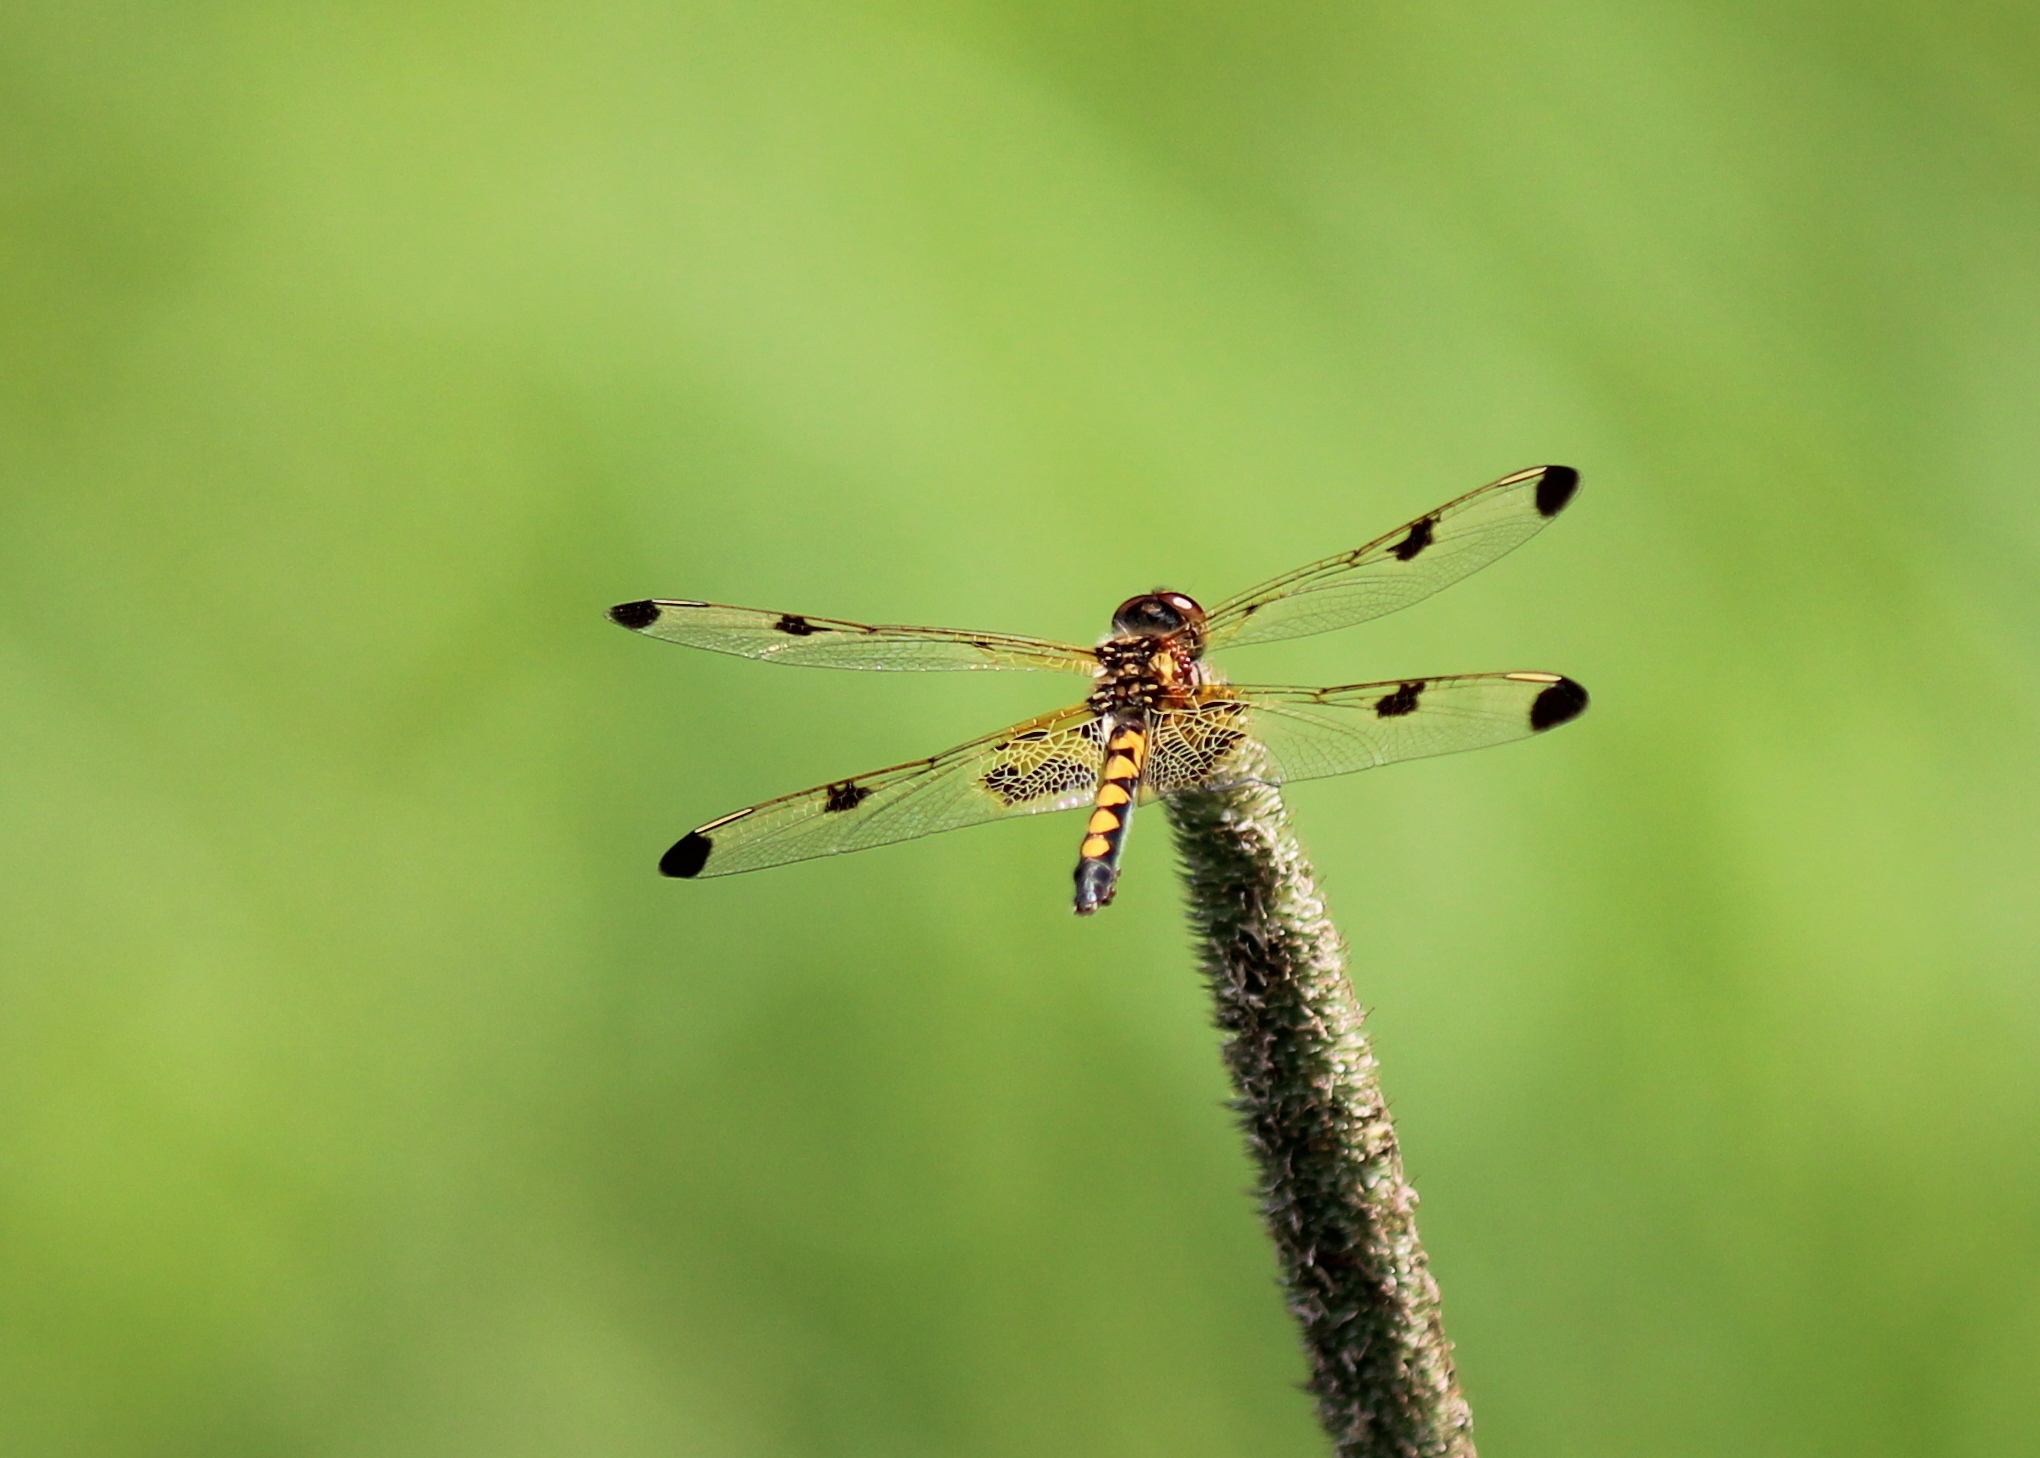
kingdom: Animalia
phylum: Arthropoda
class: Insecta
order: Odonata
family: Libellulidae
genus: Celithemis
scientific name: Celithemis elisa
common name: Calico pennant
